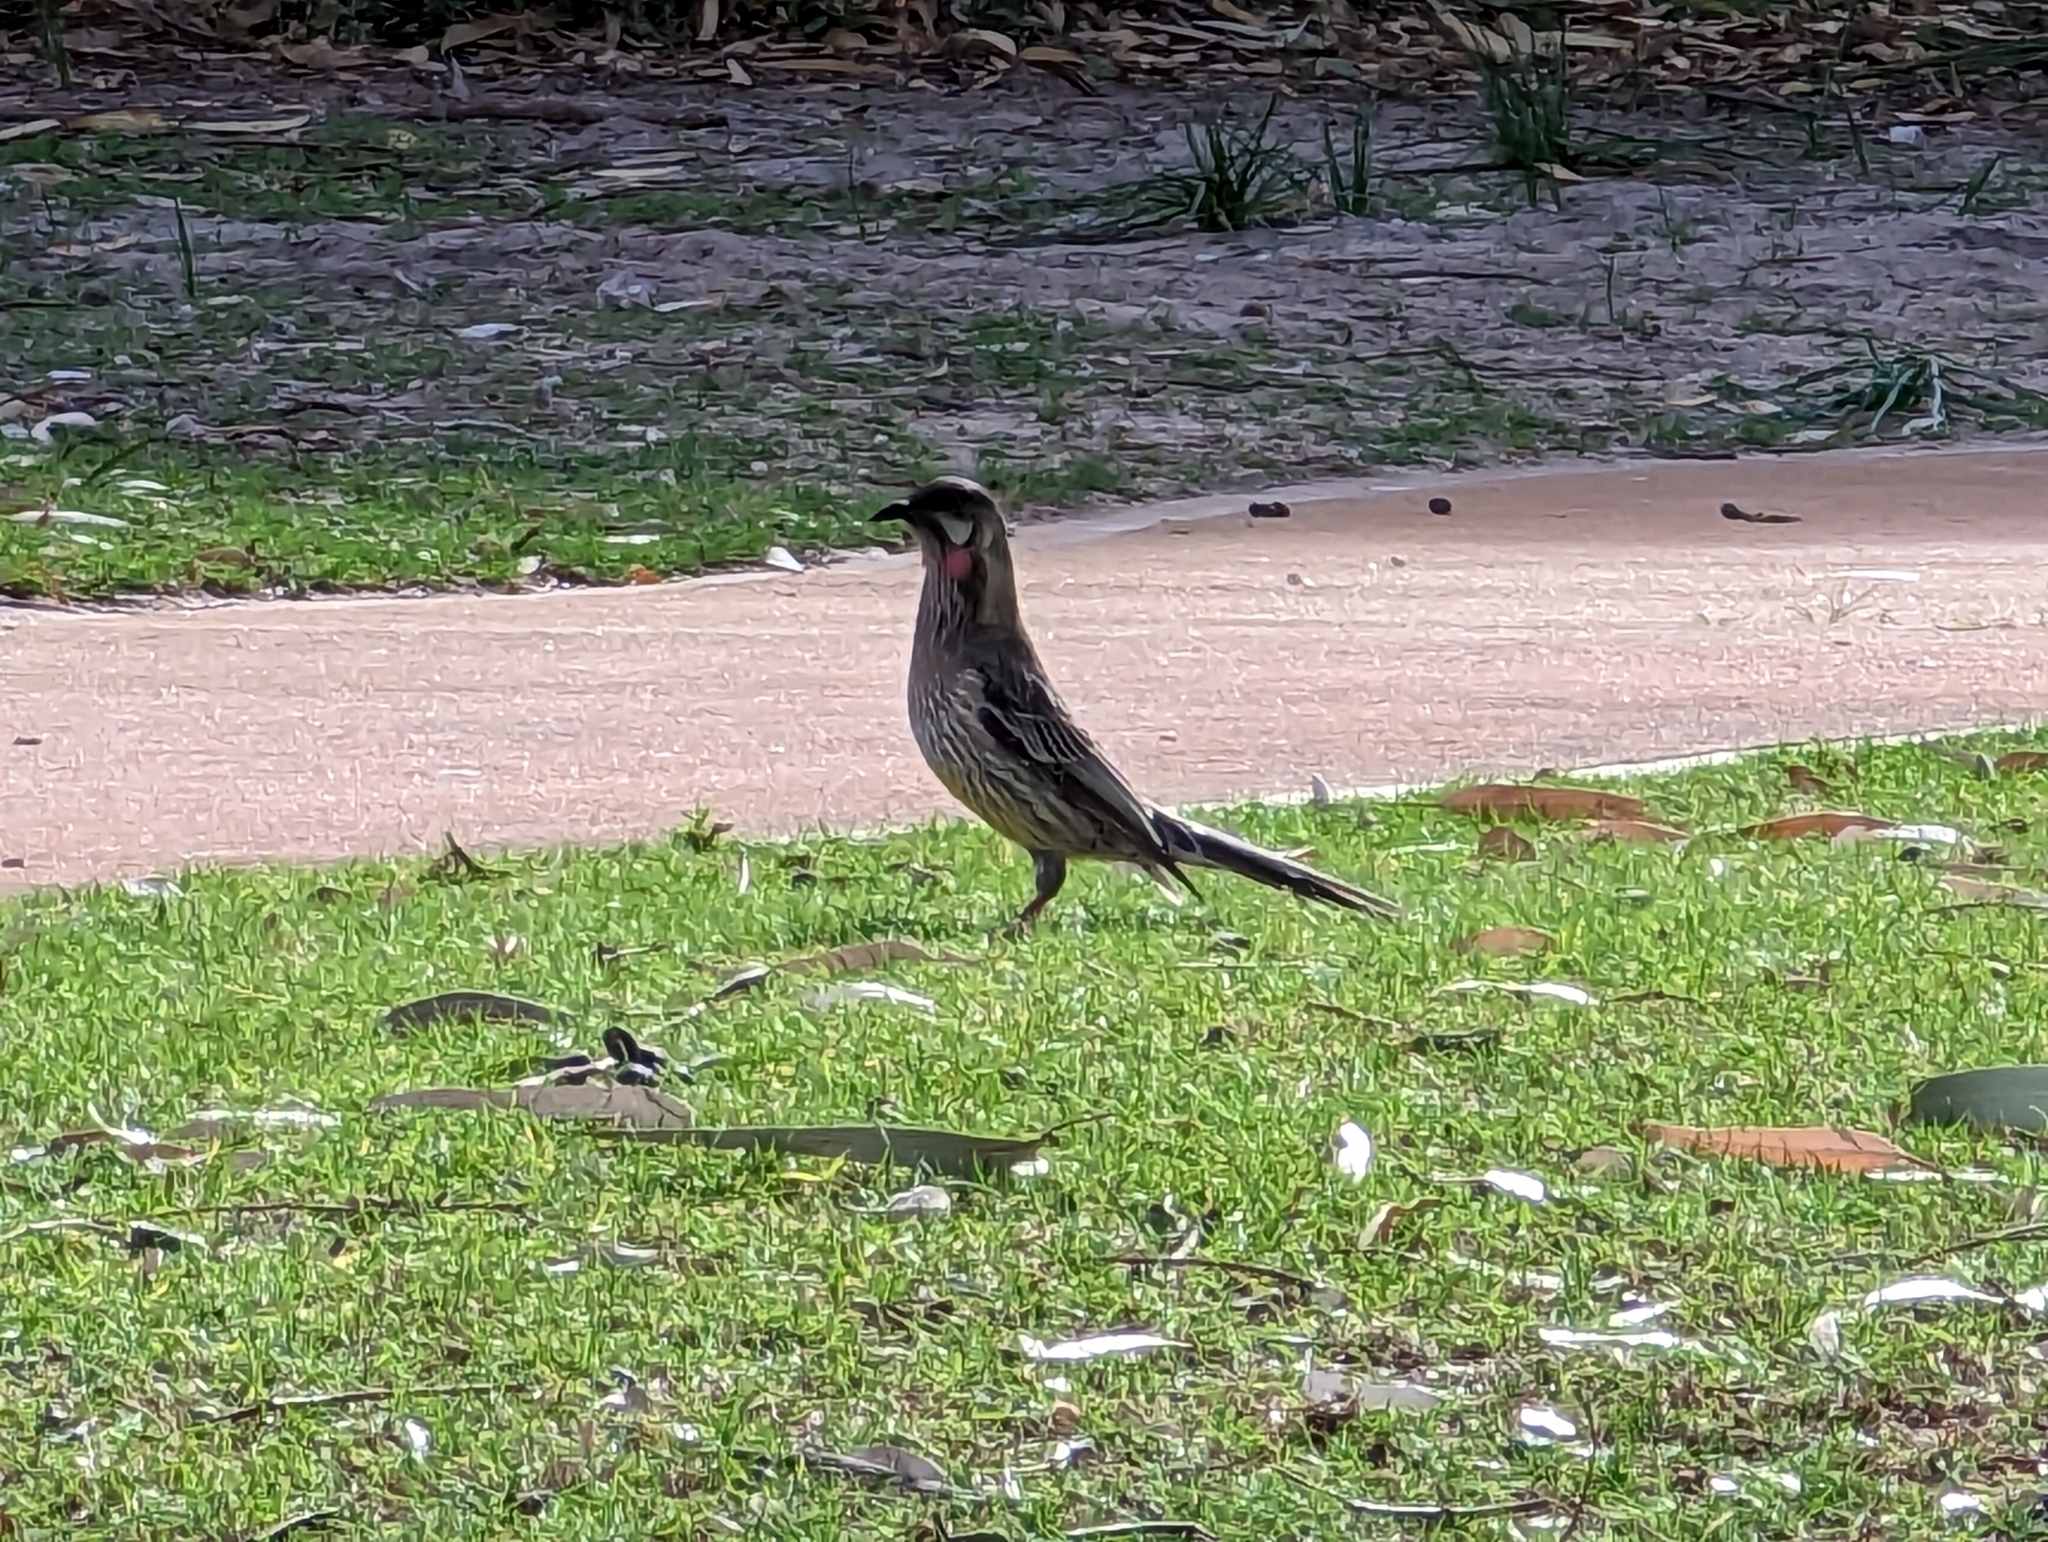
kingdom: Animalia
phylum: Chordata
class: Aves
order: Passeriformes
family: Meliphagidae
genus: Anthochaera
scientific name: Anthochaera carunculata
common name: Red wattlebird
